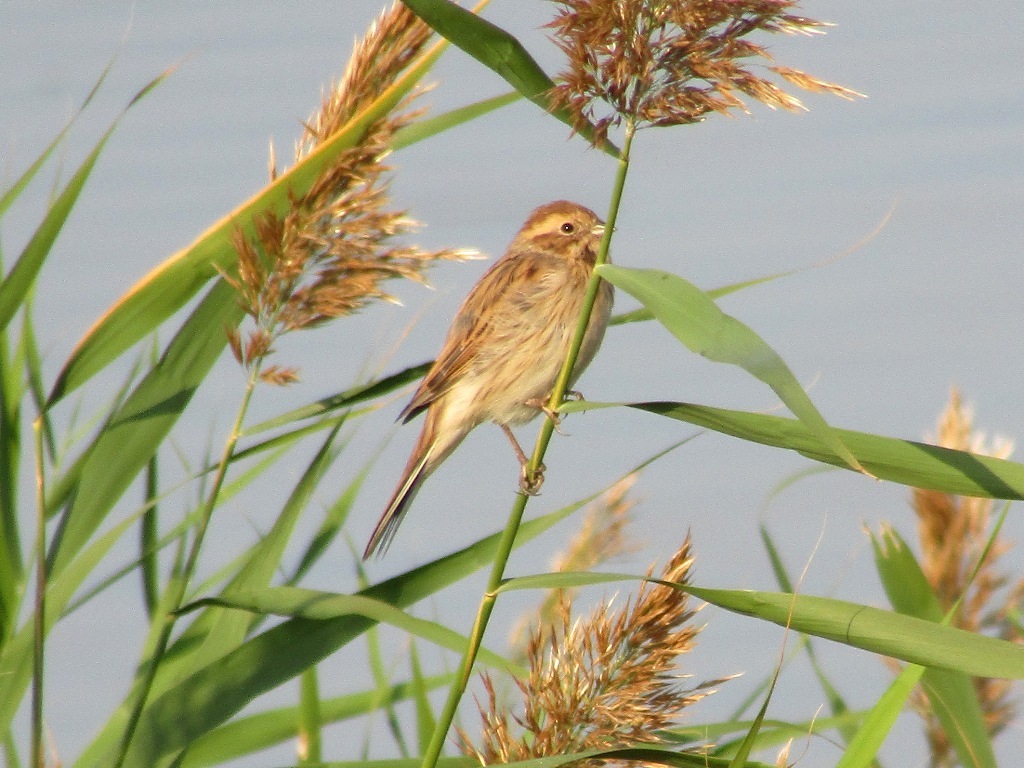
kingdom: Animalia
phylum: Chordata
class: Aves
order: Passeriformes
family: Emberizidae
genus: Emberiza
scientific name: Emberiza schoeniclus
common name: Reed bunting
